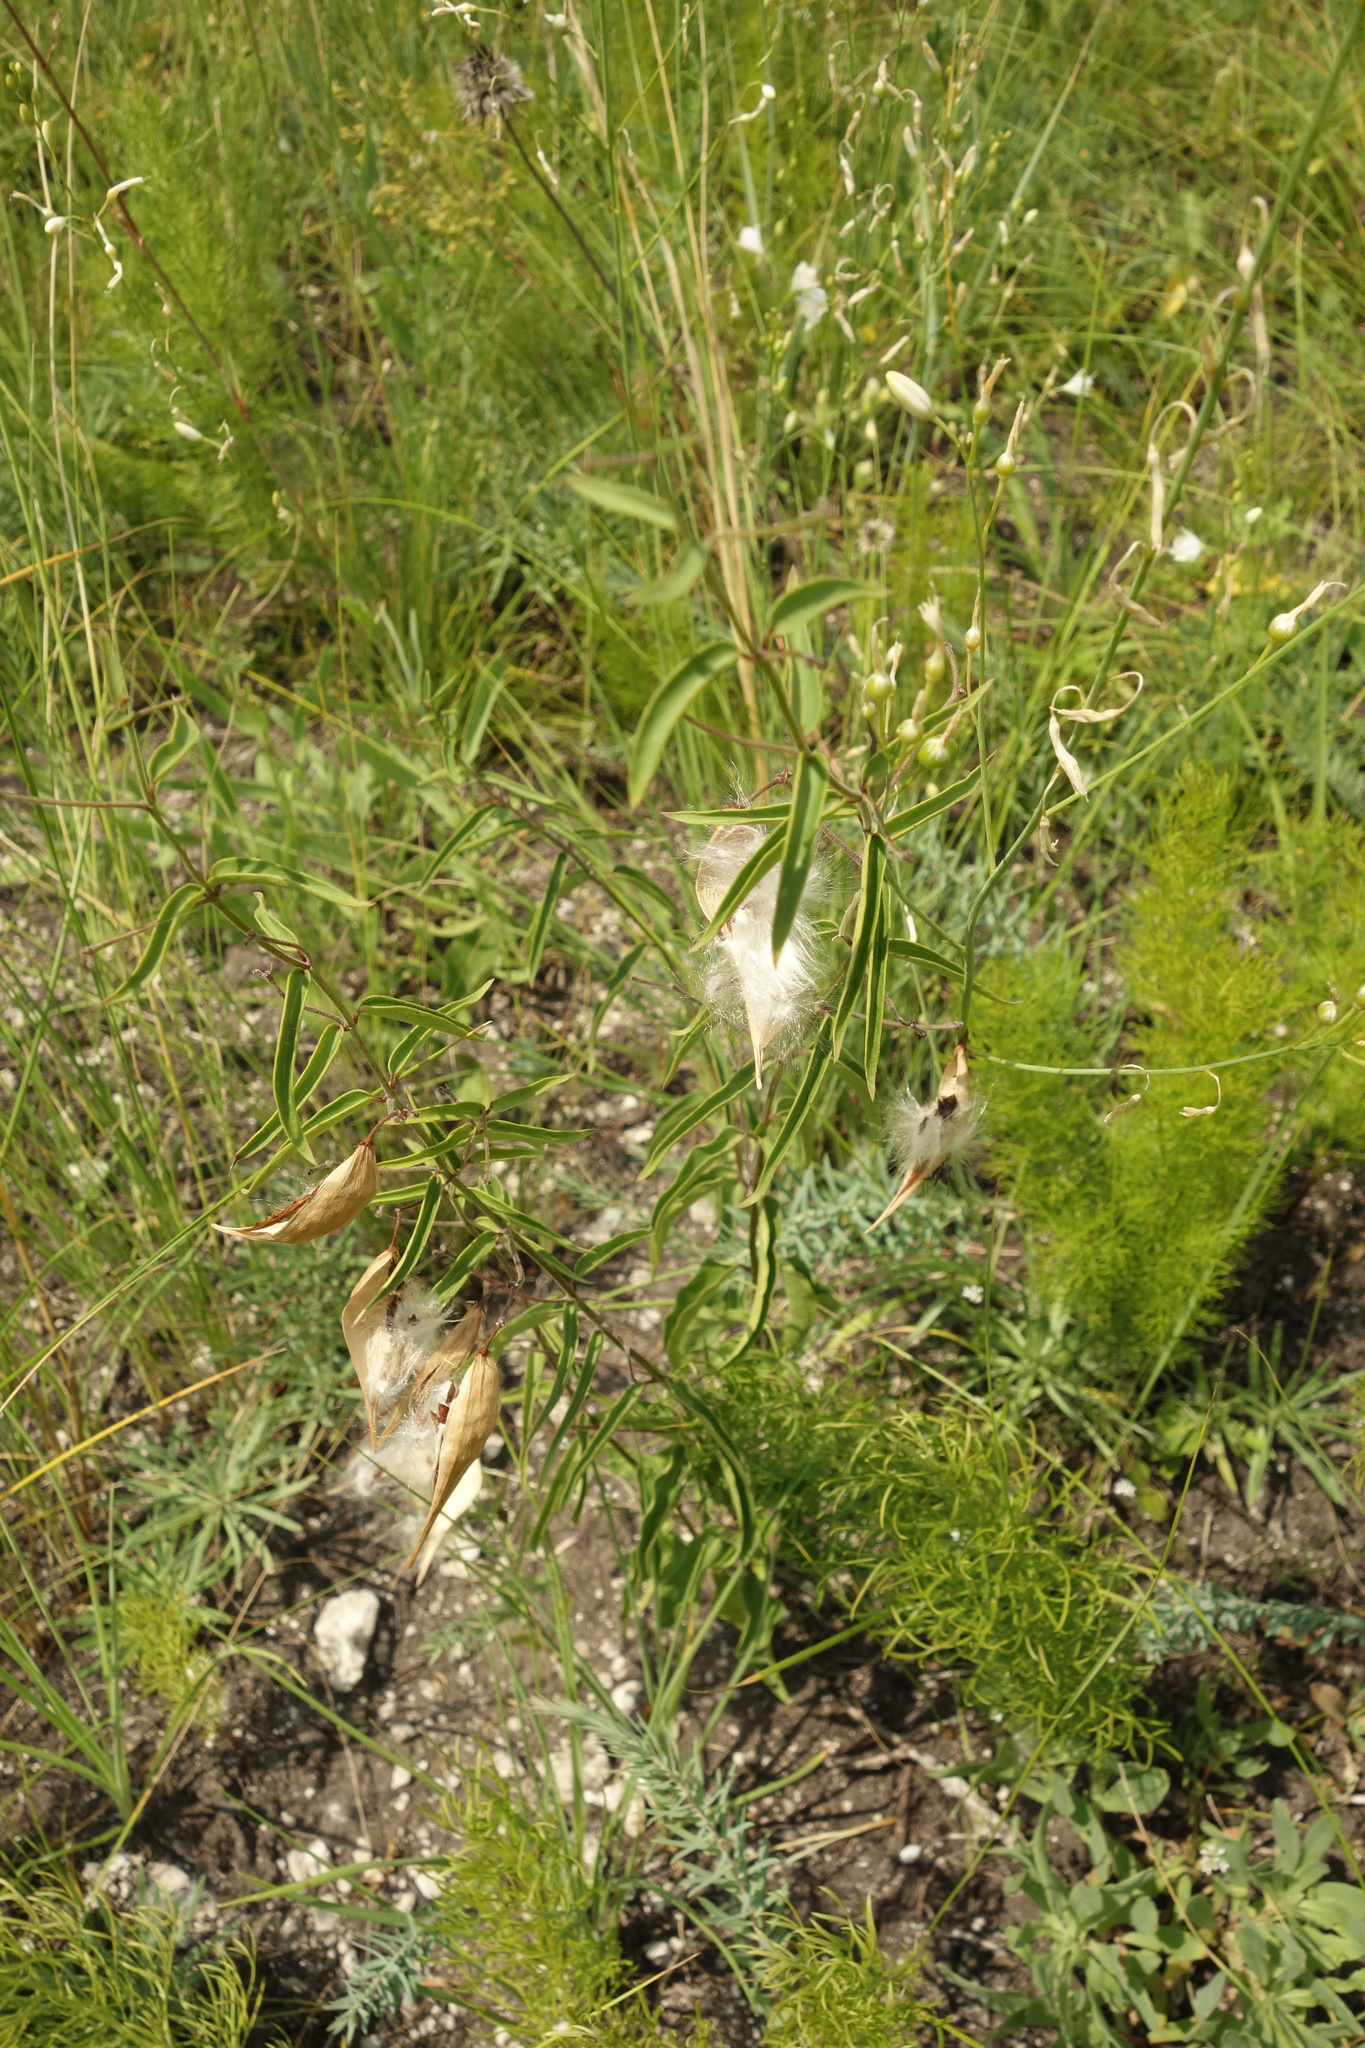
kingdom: Plantae
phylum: Tracheophyta
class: Magnoliopsida
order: Gentianales
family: Apocynaceae
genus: Vincetoxicum
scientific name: Vincetoxicum hirundinaria
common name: White swallowwort
